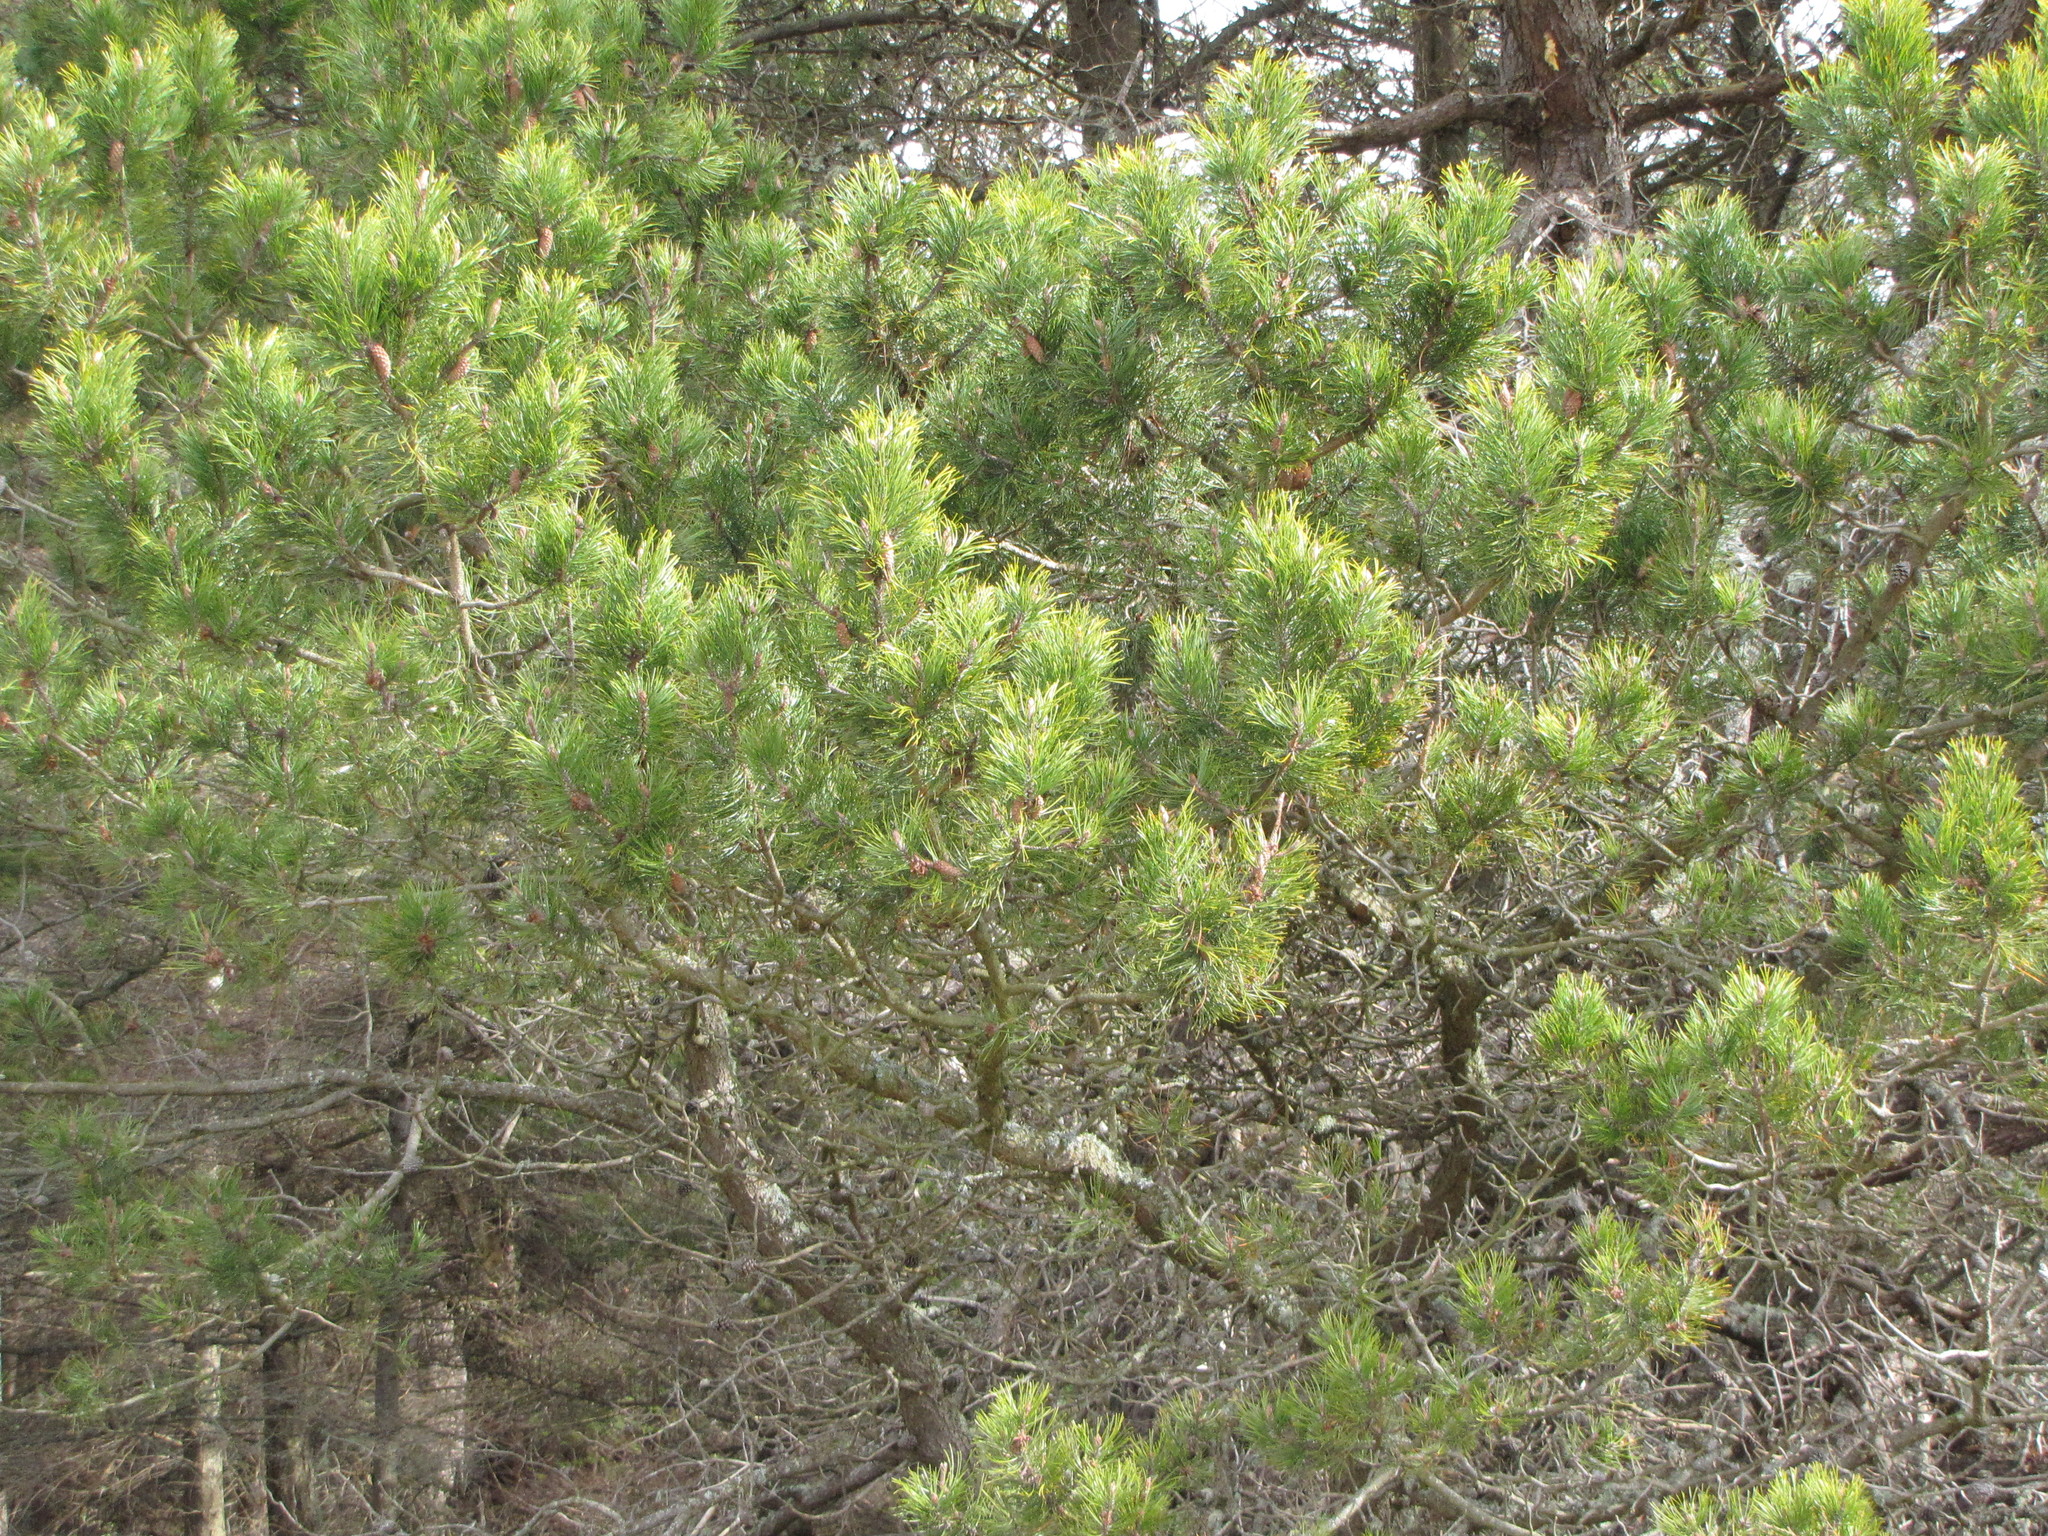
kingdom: Plantae
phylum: Tracheophyta
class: Pinopsida
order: Pinales
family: Pinaceae
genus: Pinus
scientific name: Pinus contorta
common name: Lodgepole pine
